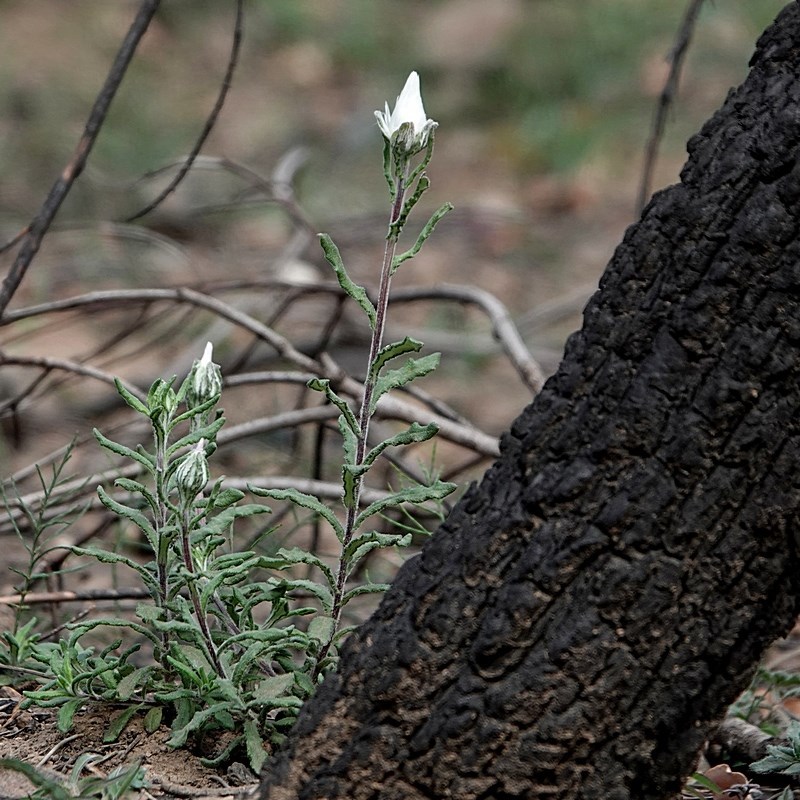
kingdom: Plantae
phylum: Tracheophyta
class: Magnoliopsida
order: Asterales
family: Asteraceae
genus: Helichrysum
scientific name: Helichrysum leucopsideum
